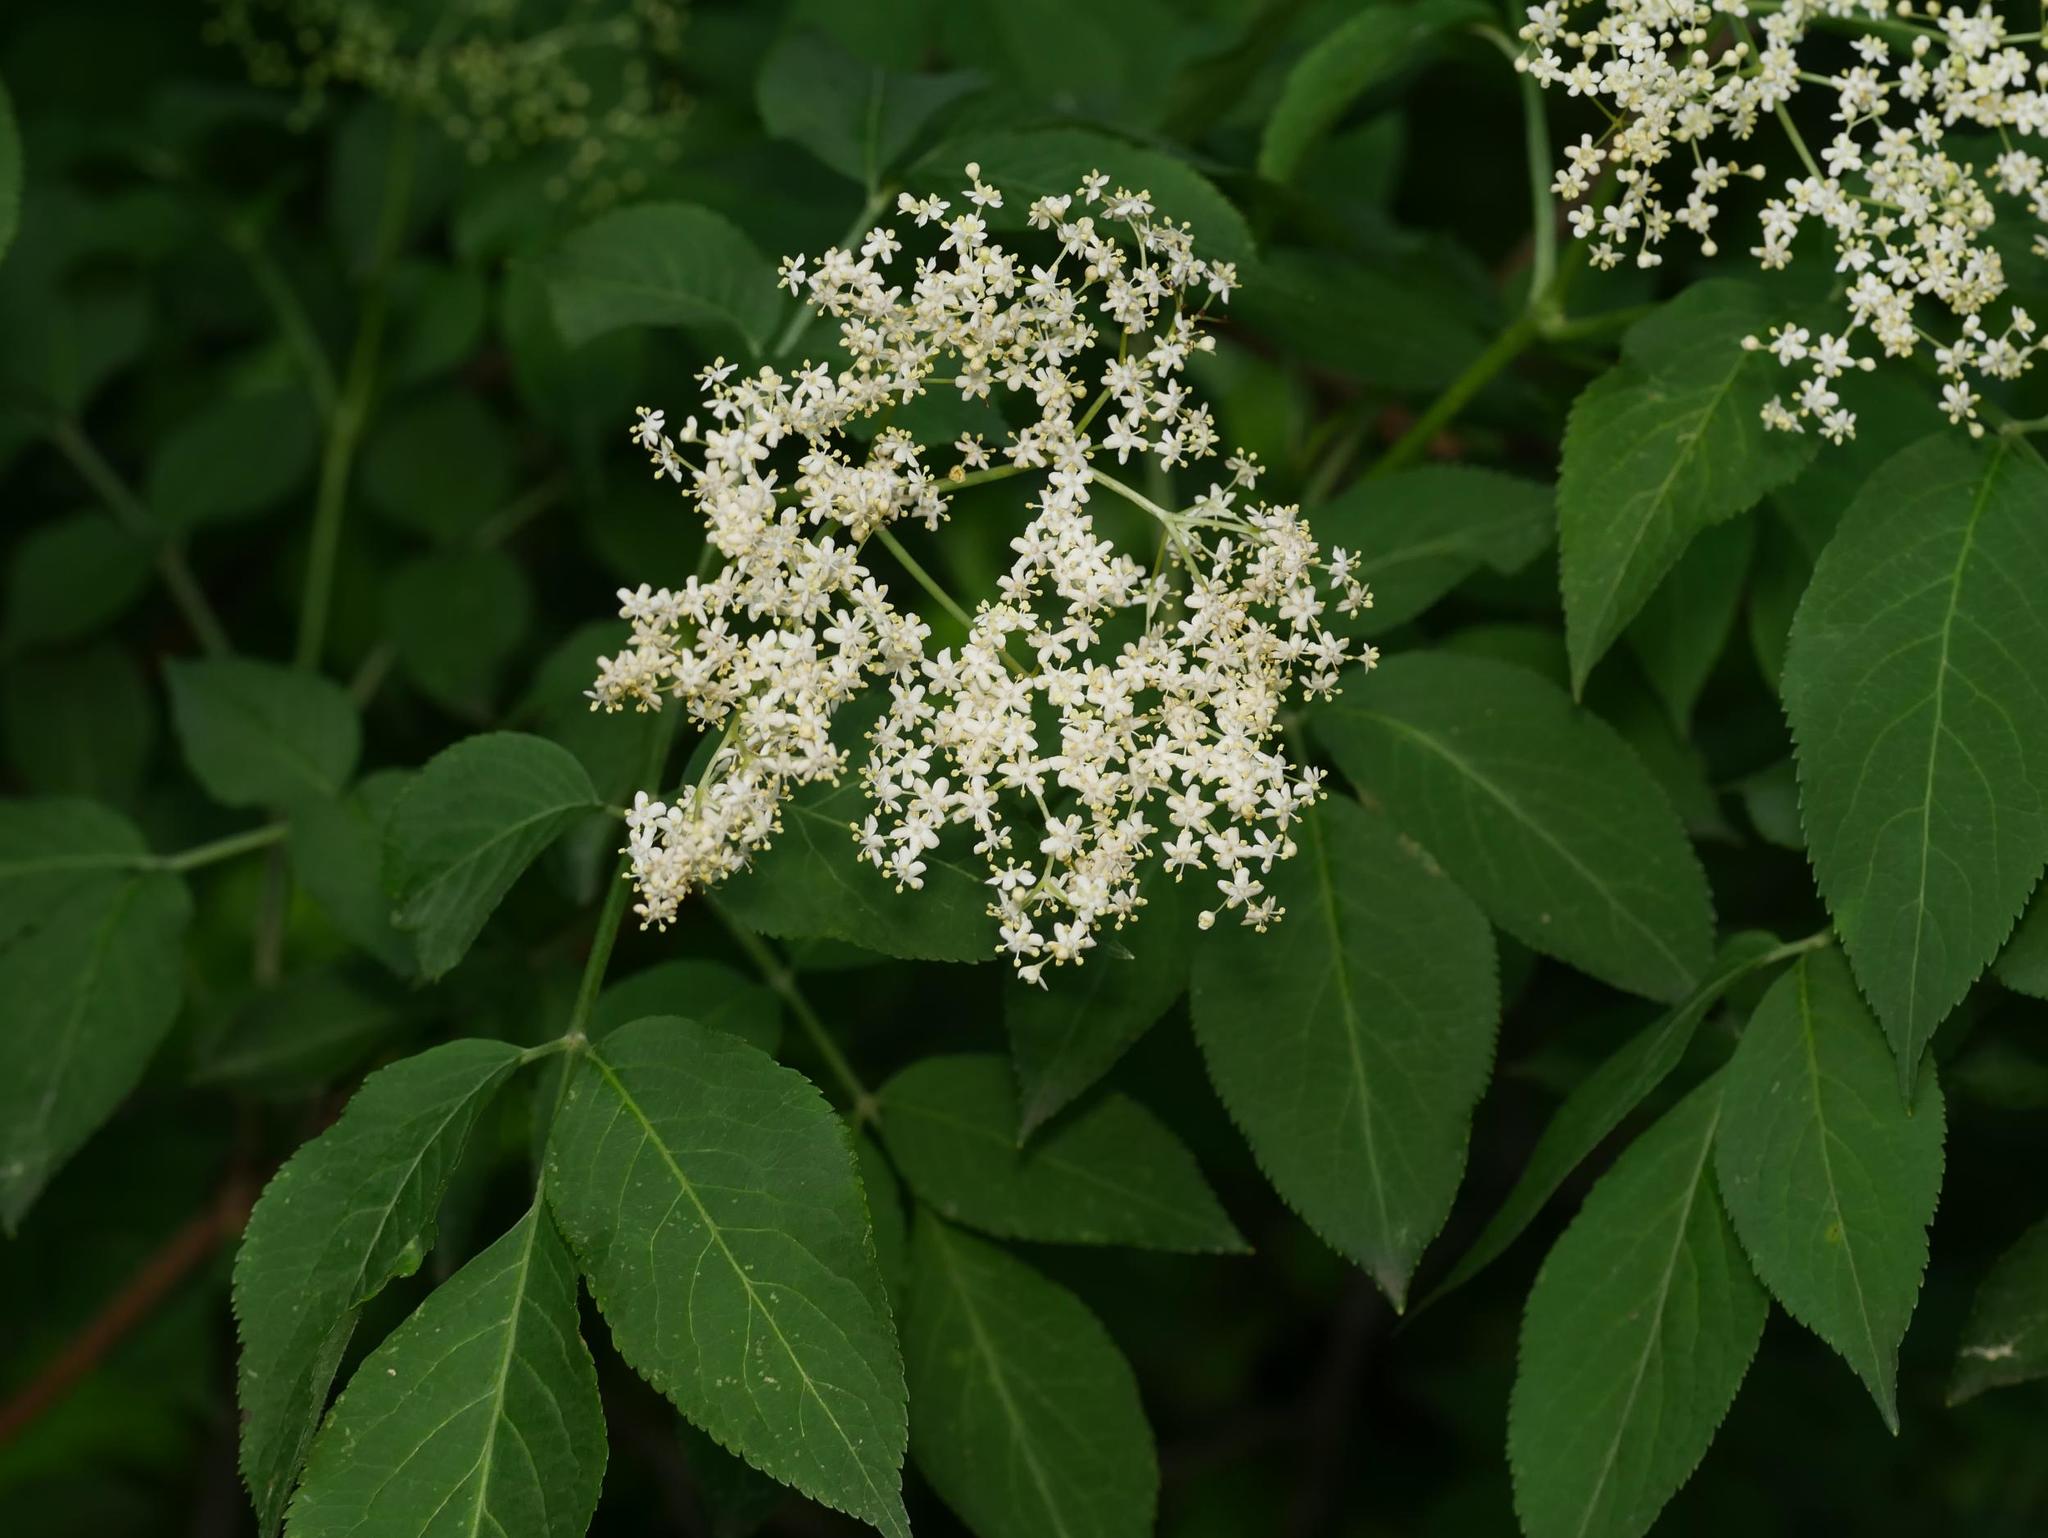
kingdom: Plantae
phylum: Tracheophyta
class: Magnoliopsida
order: Dipsacales
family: Viburnaceae
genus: Sambucus
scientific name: Sambucus nigra
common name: Elder
